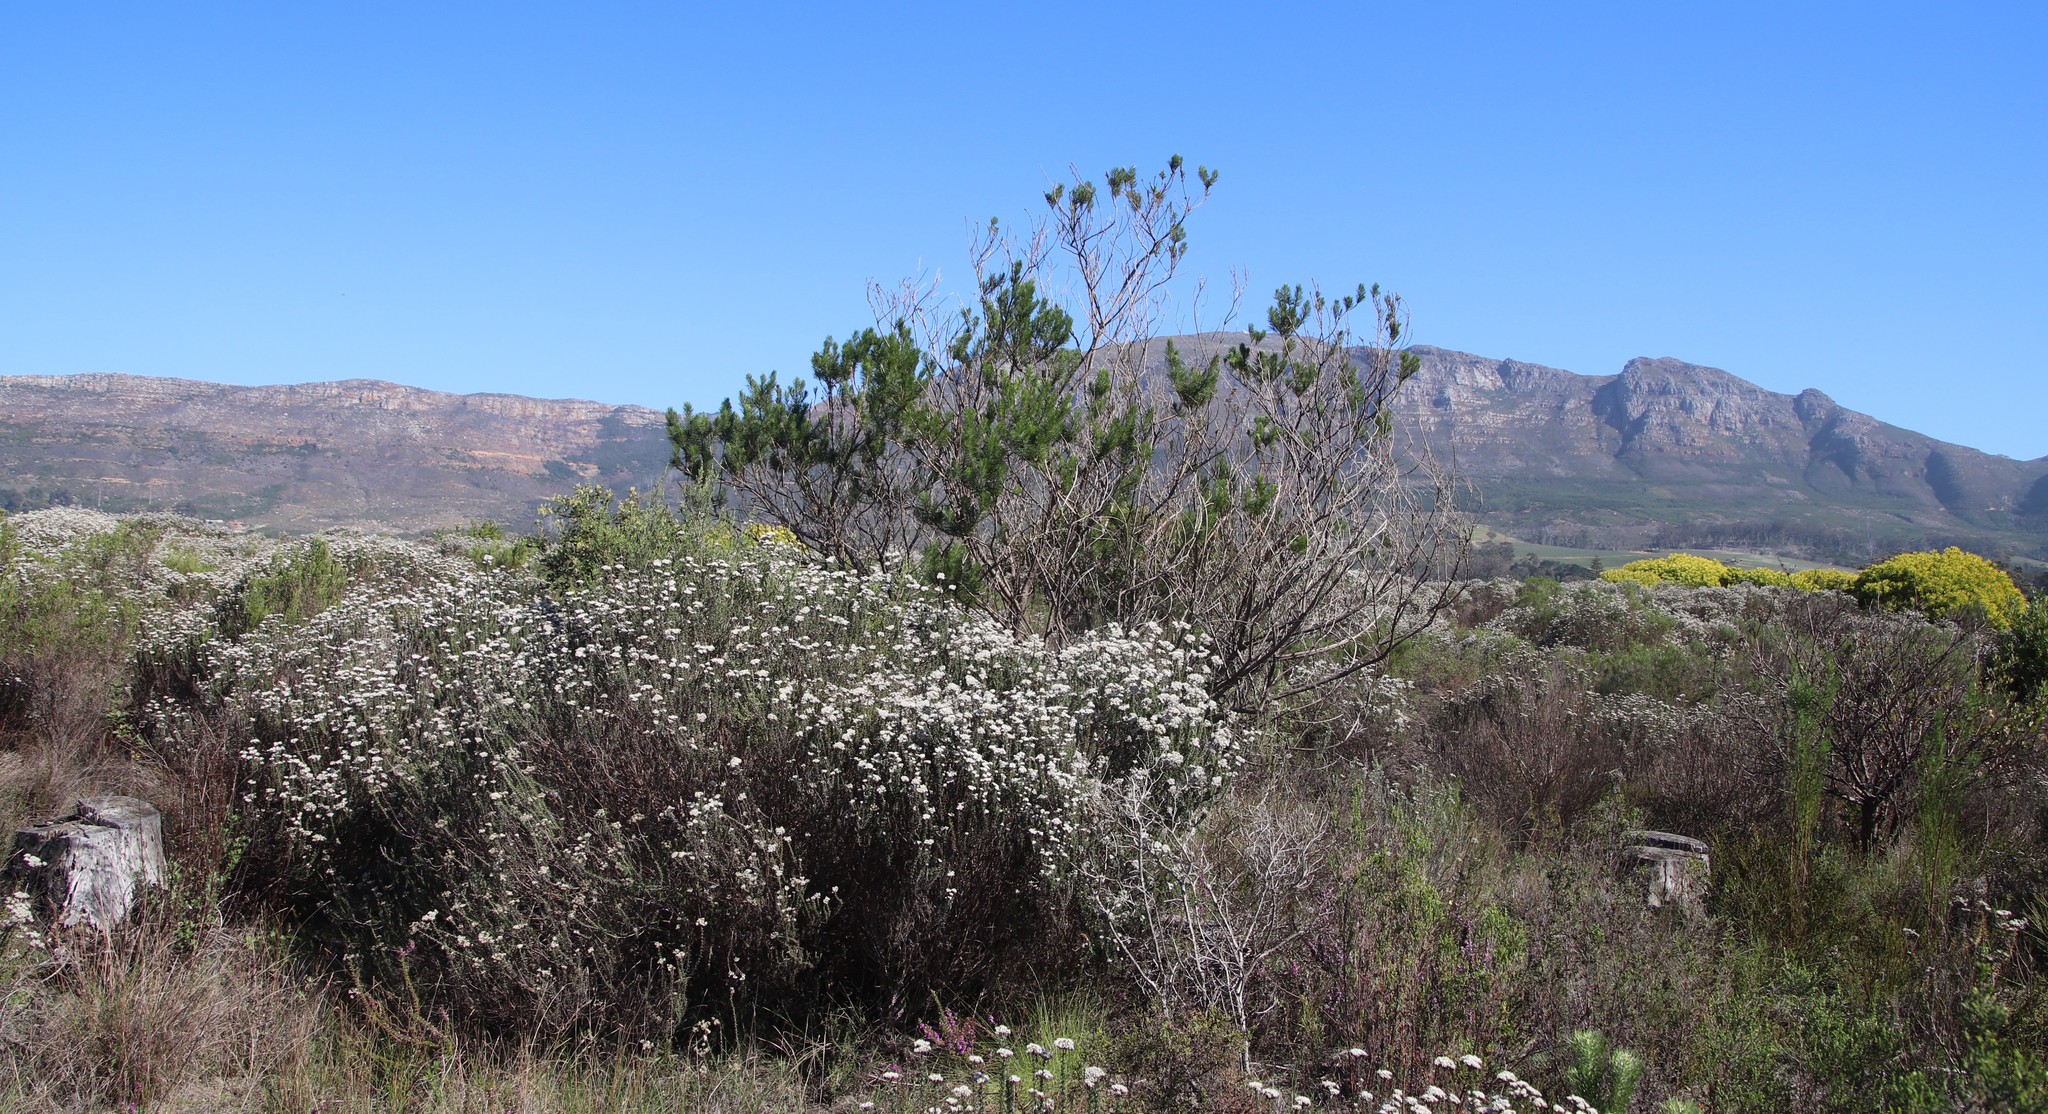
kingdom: Plantae
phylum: Tracheophyta
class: Magnoliopsida
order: Fabales
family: Fabaceae
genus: Psoralea
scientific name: Psoralea pinnata
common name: African scurfpea
